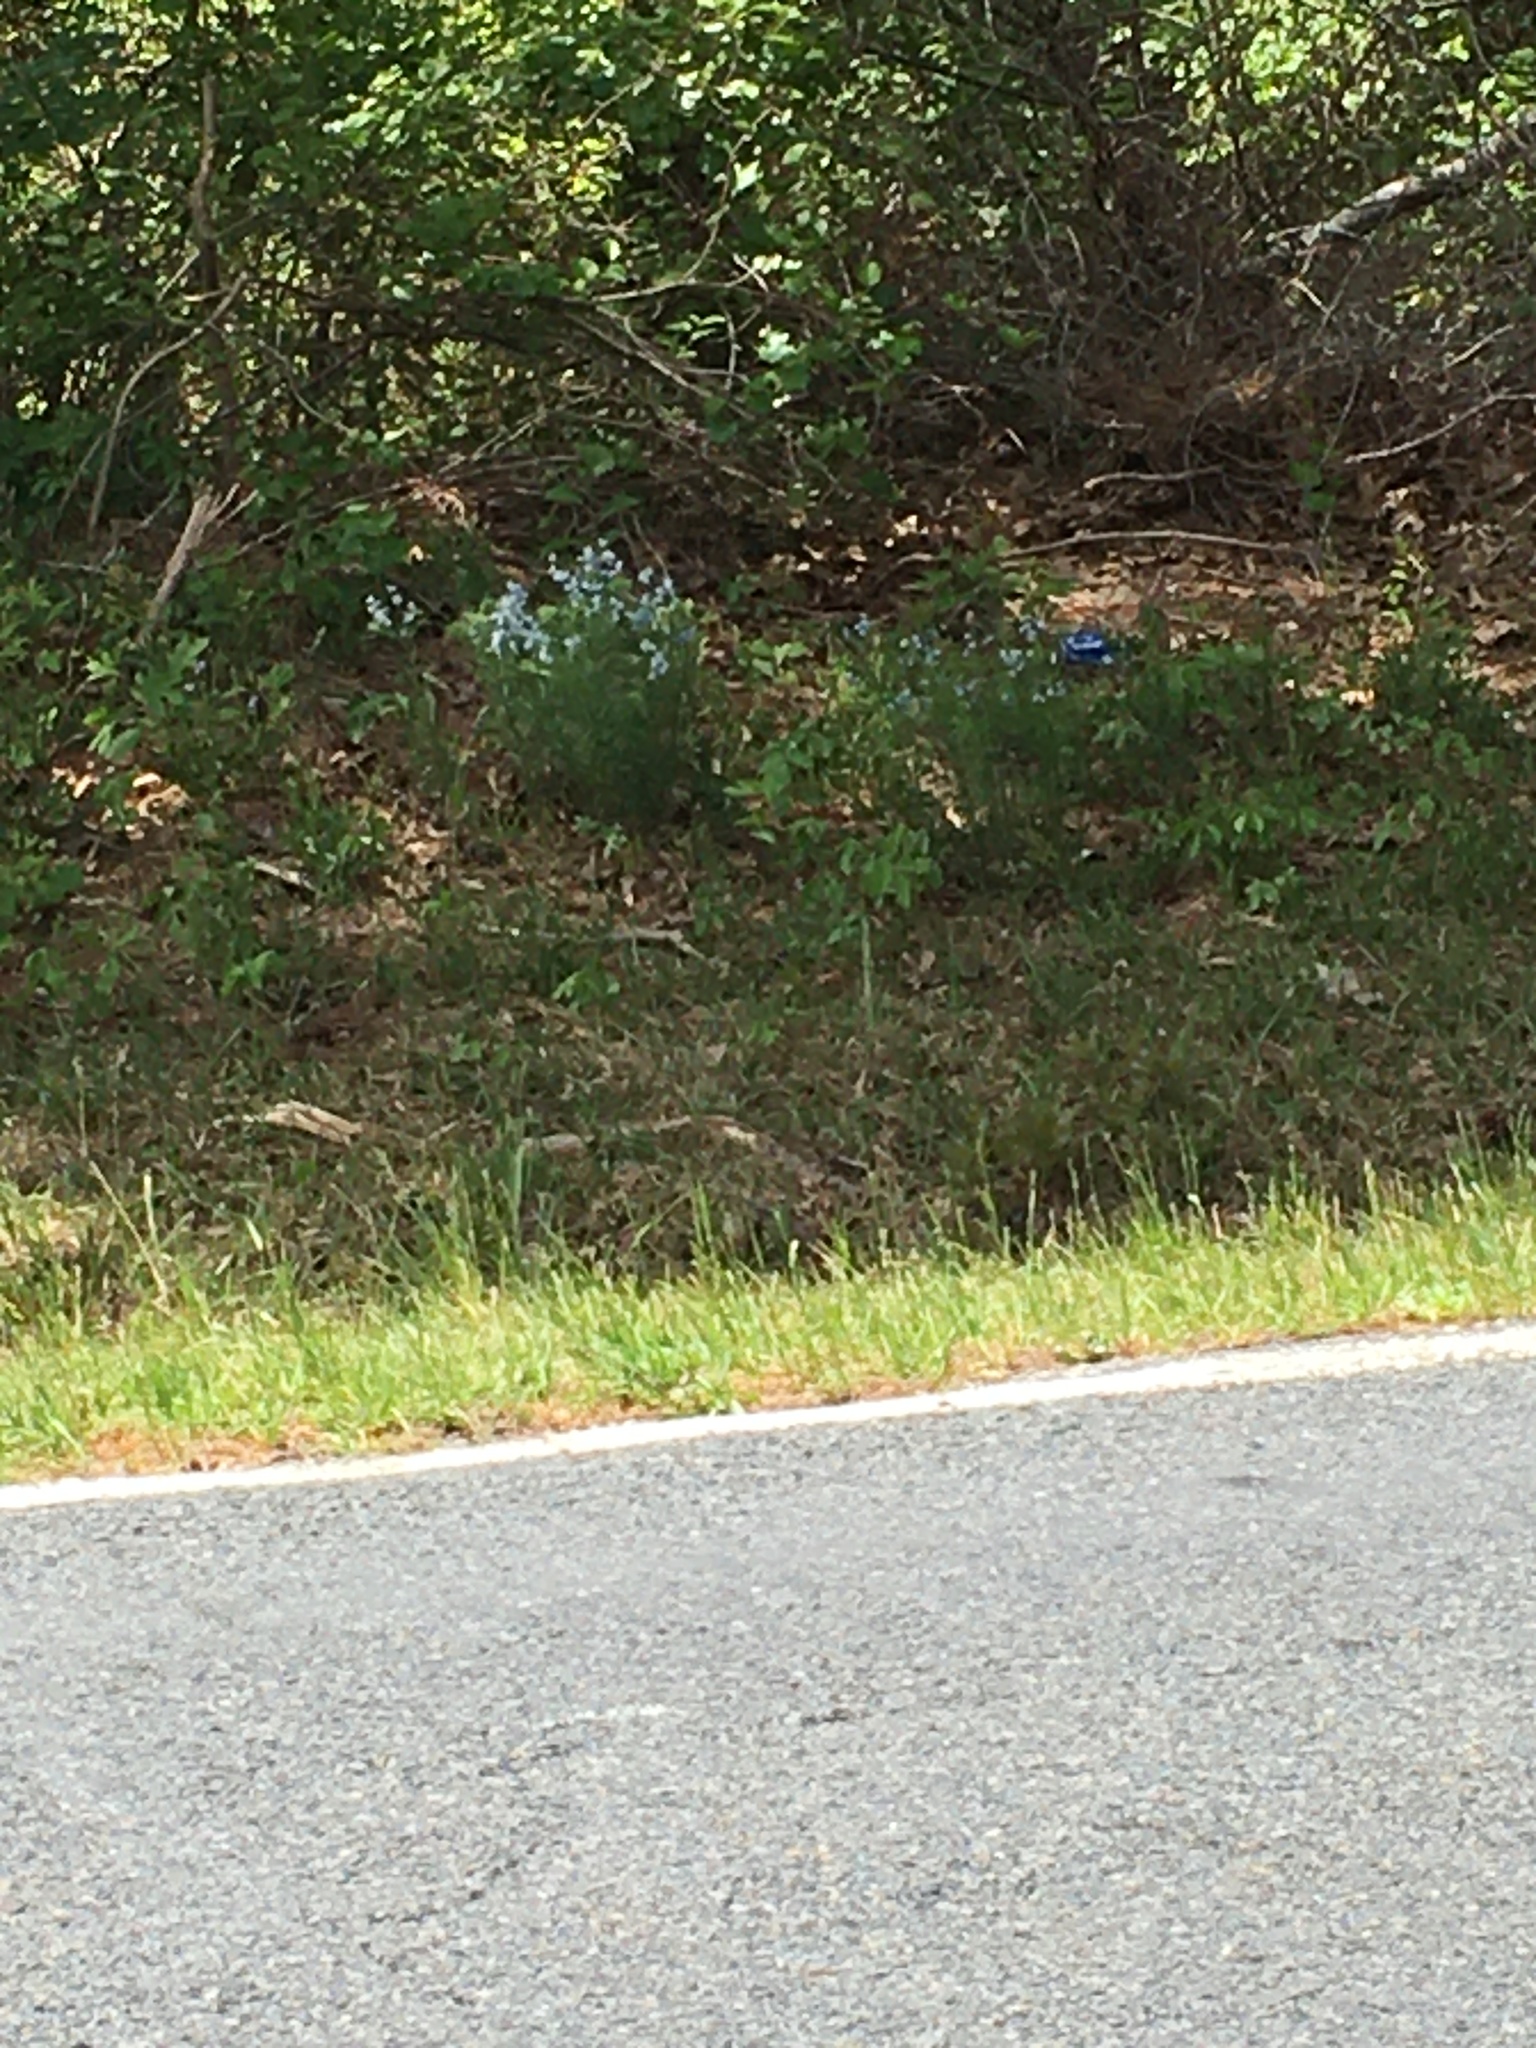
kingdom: Plantae
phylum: Tracheophyta
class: Magnoliopsida
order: Gentianales
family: Apocynaceae
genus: Amsonia
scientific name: Amsonia ciliata
